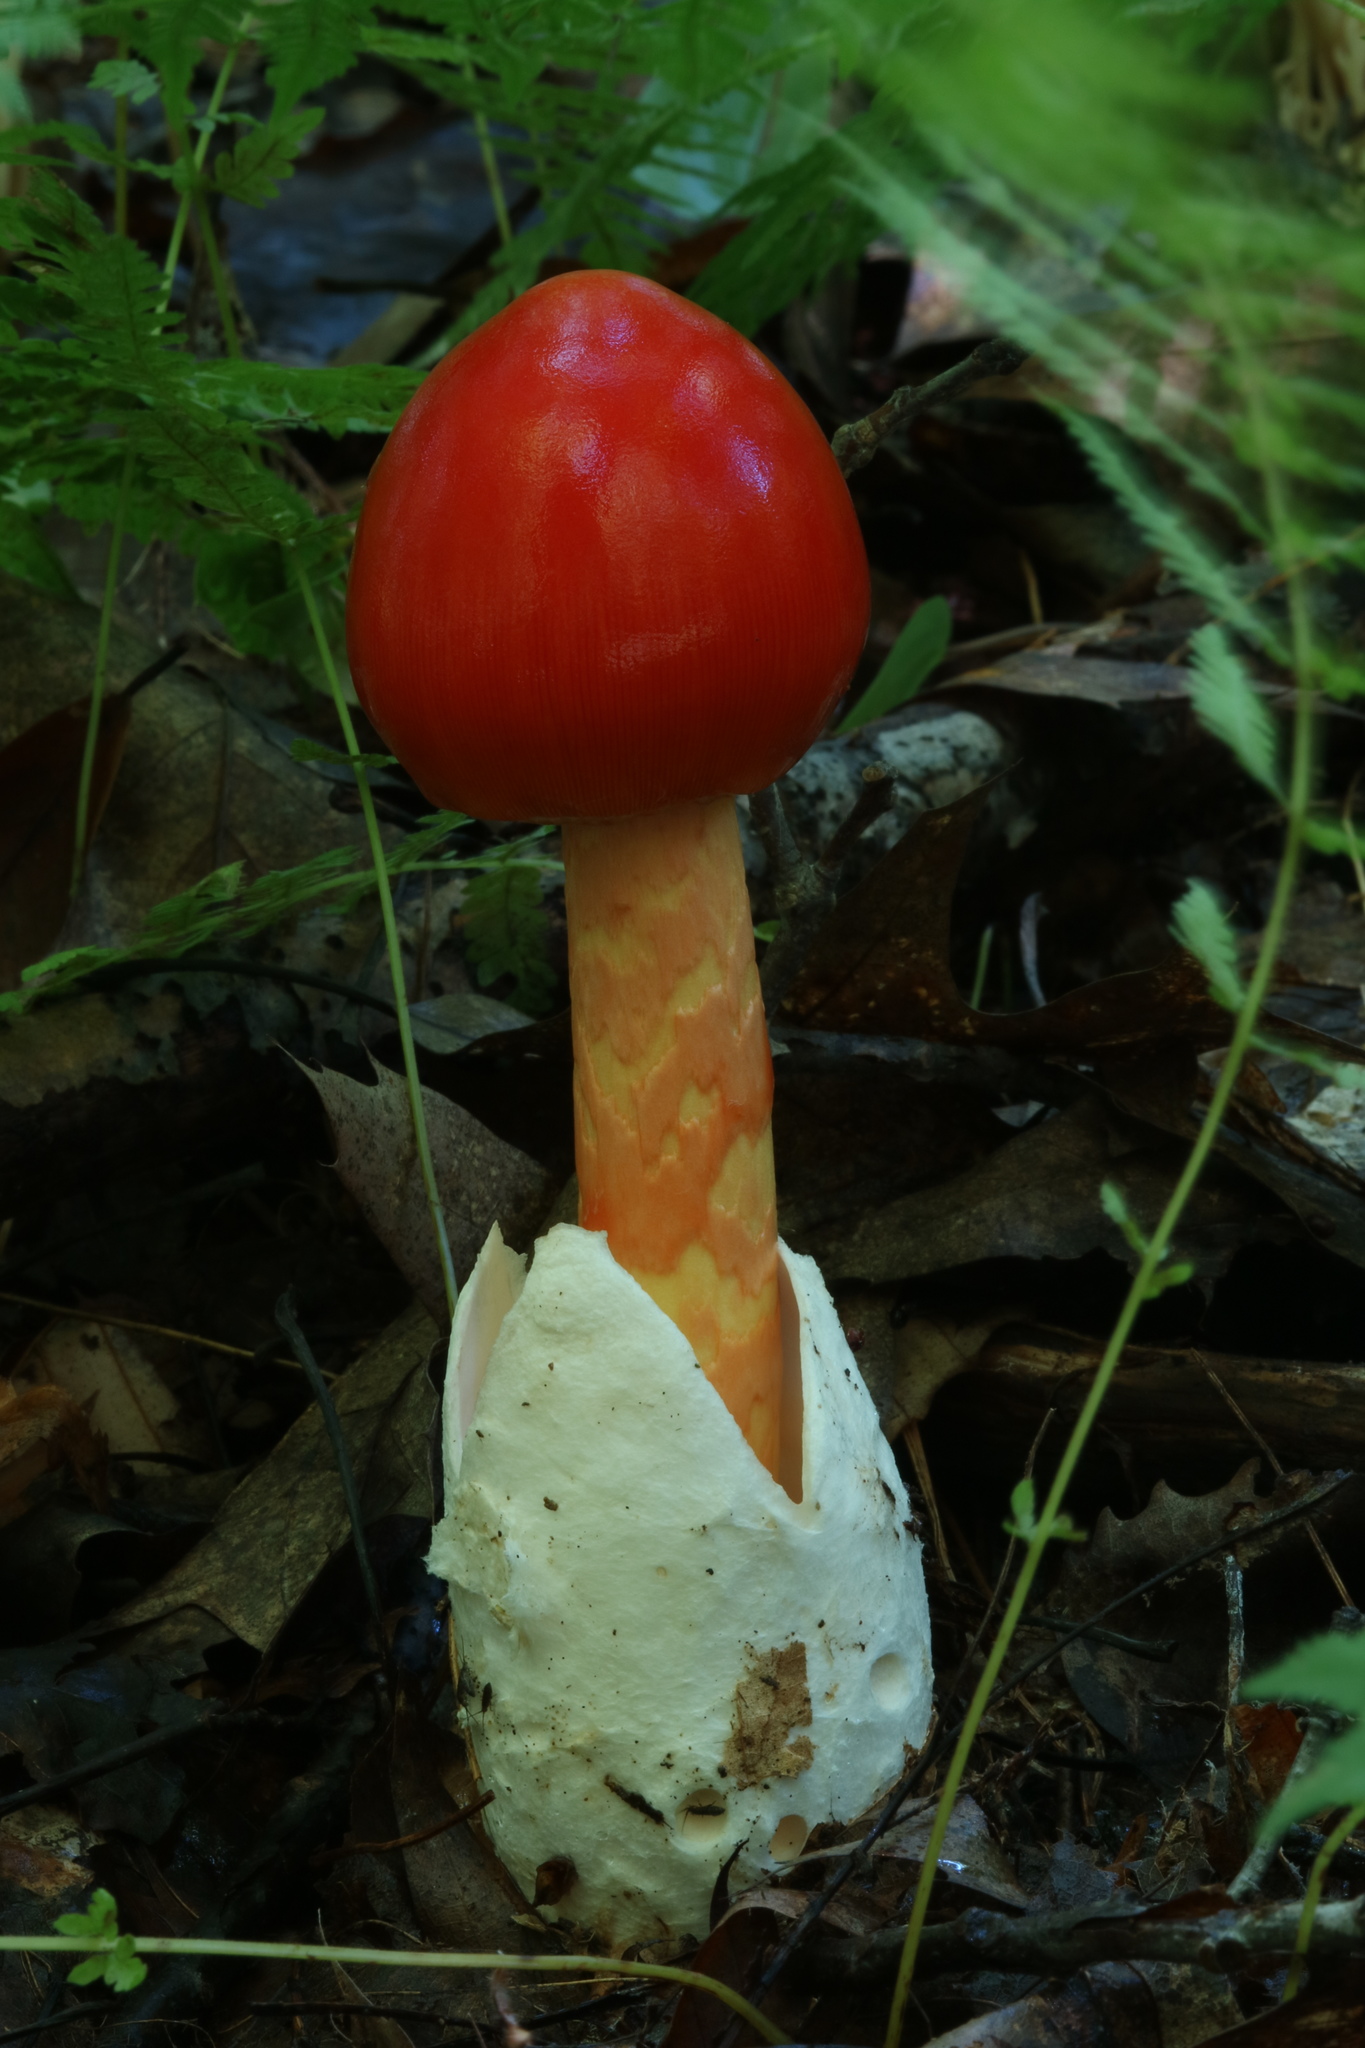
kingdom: Fungi
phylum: Basidiomycota
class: Agaricomycetes
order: Agaricales
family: Amanitaceae
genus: Amanita
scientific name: Amanita jacksonii
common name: Jackson's slender caesar
